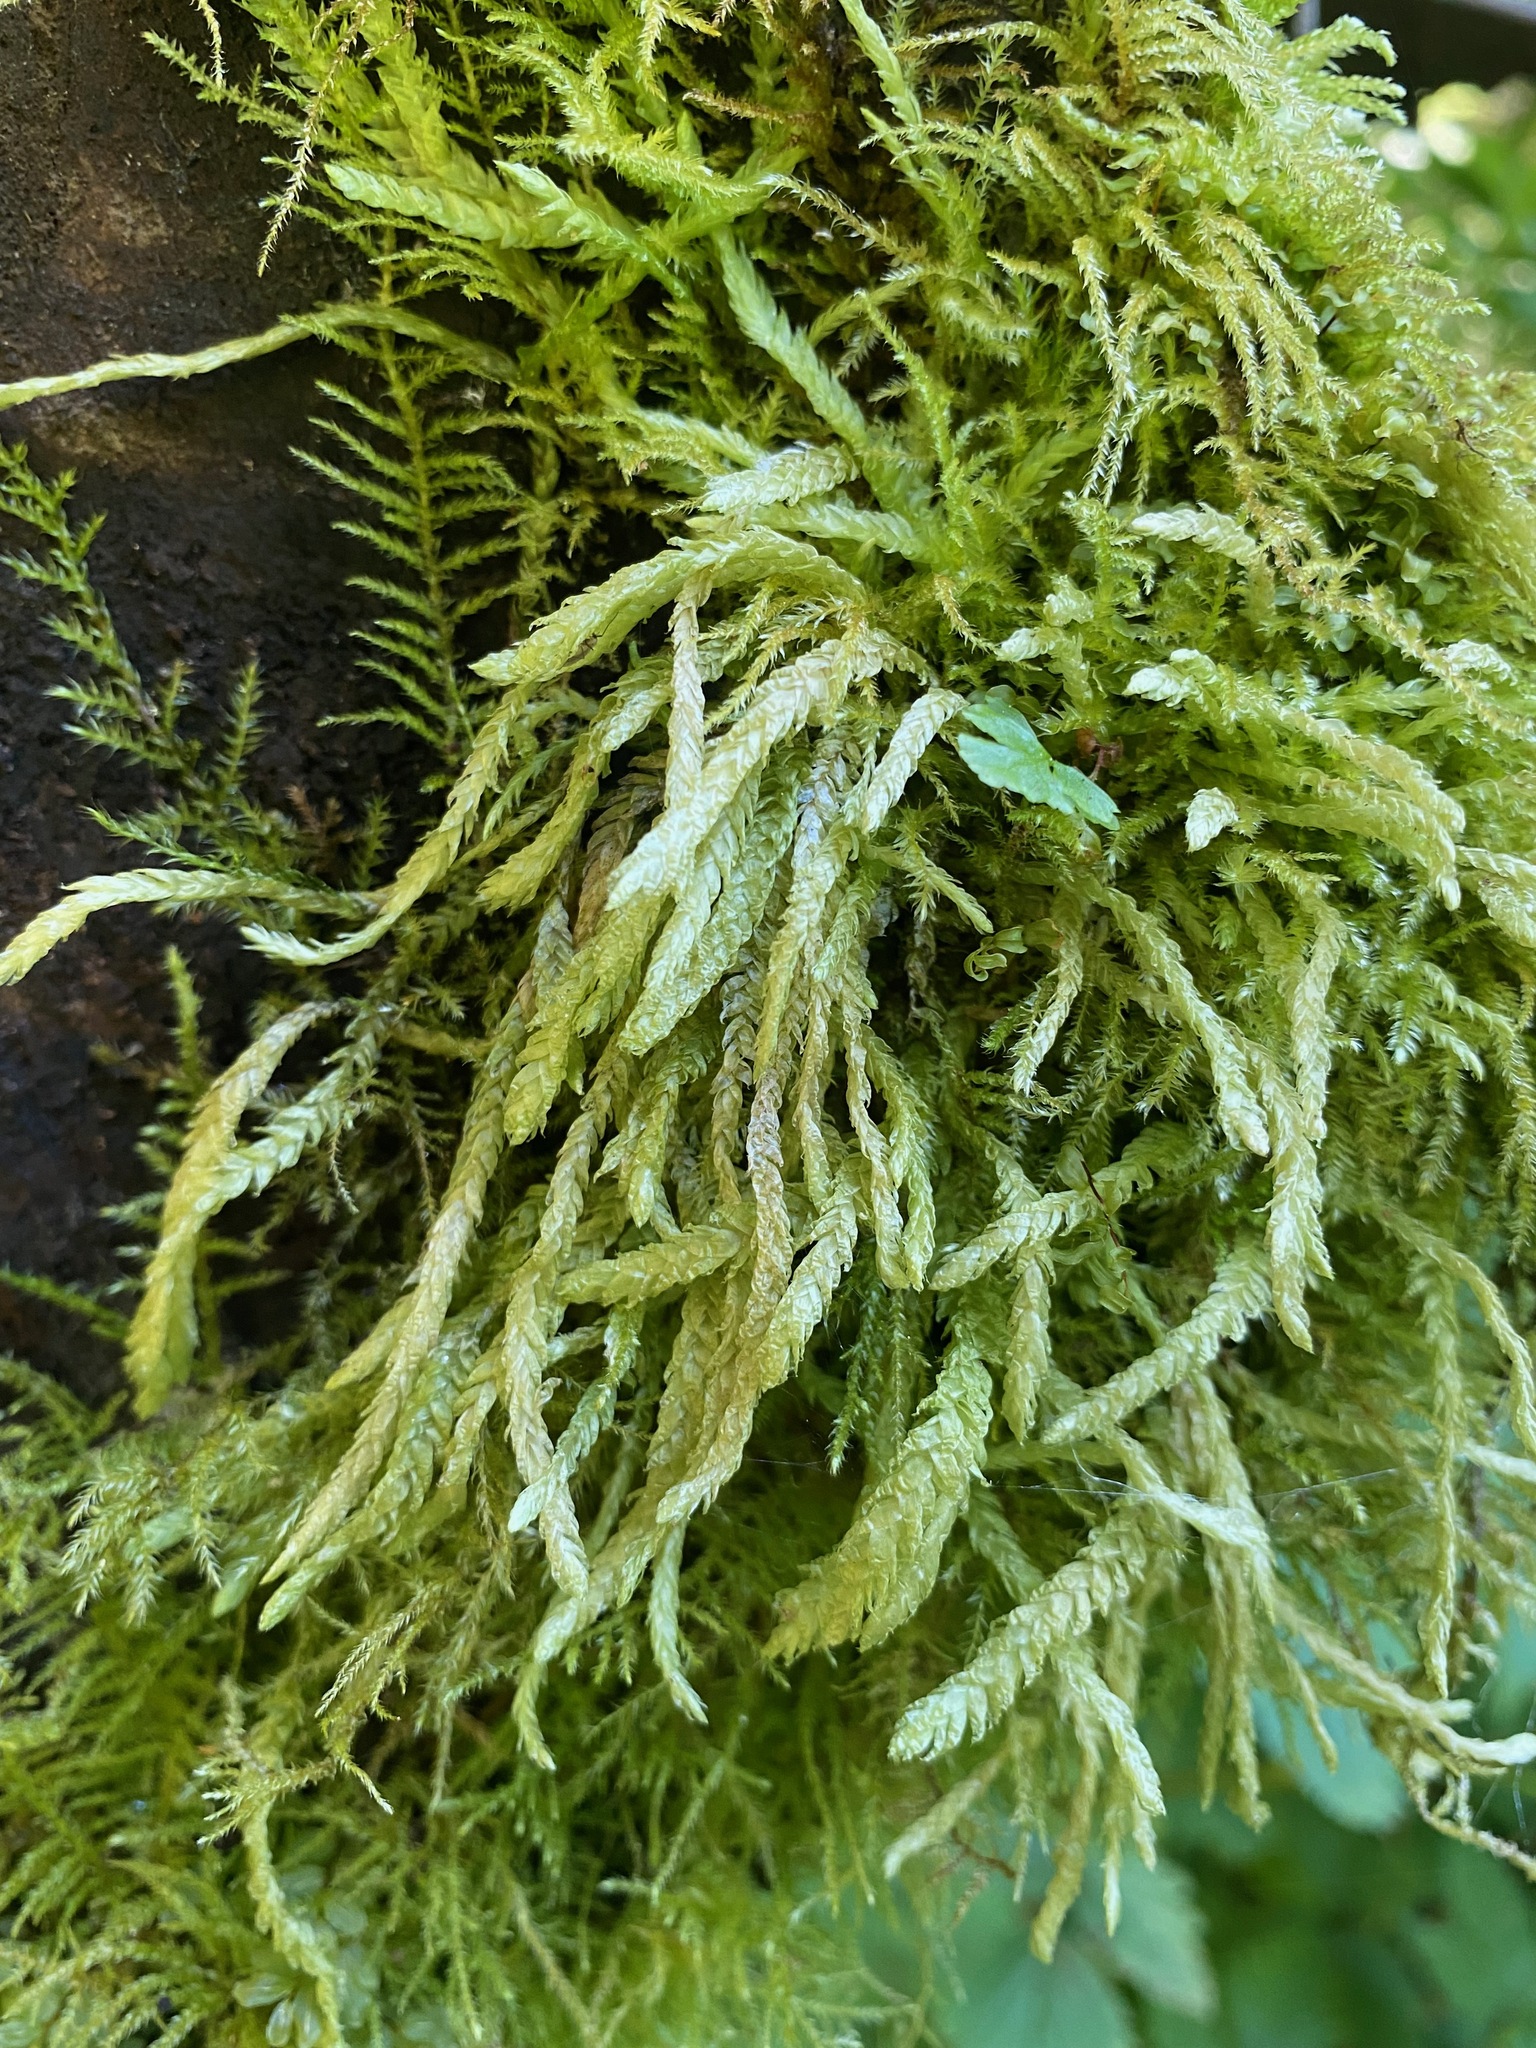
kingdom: Plantae
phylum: Bryophyta
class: Bryopsida
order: Hypnales
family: Plagiotheciaceae
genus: Plagiothecium
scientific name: Plagiothecium undulatum
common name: Waved silk-moss
